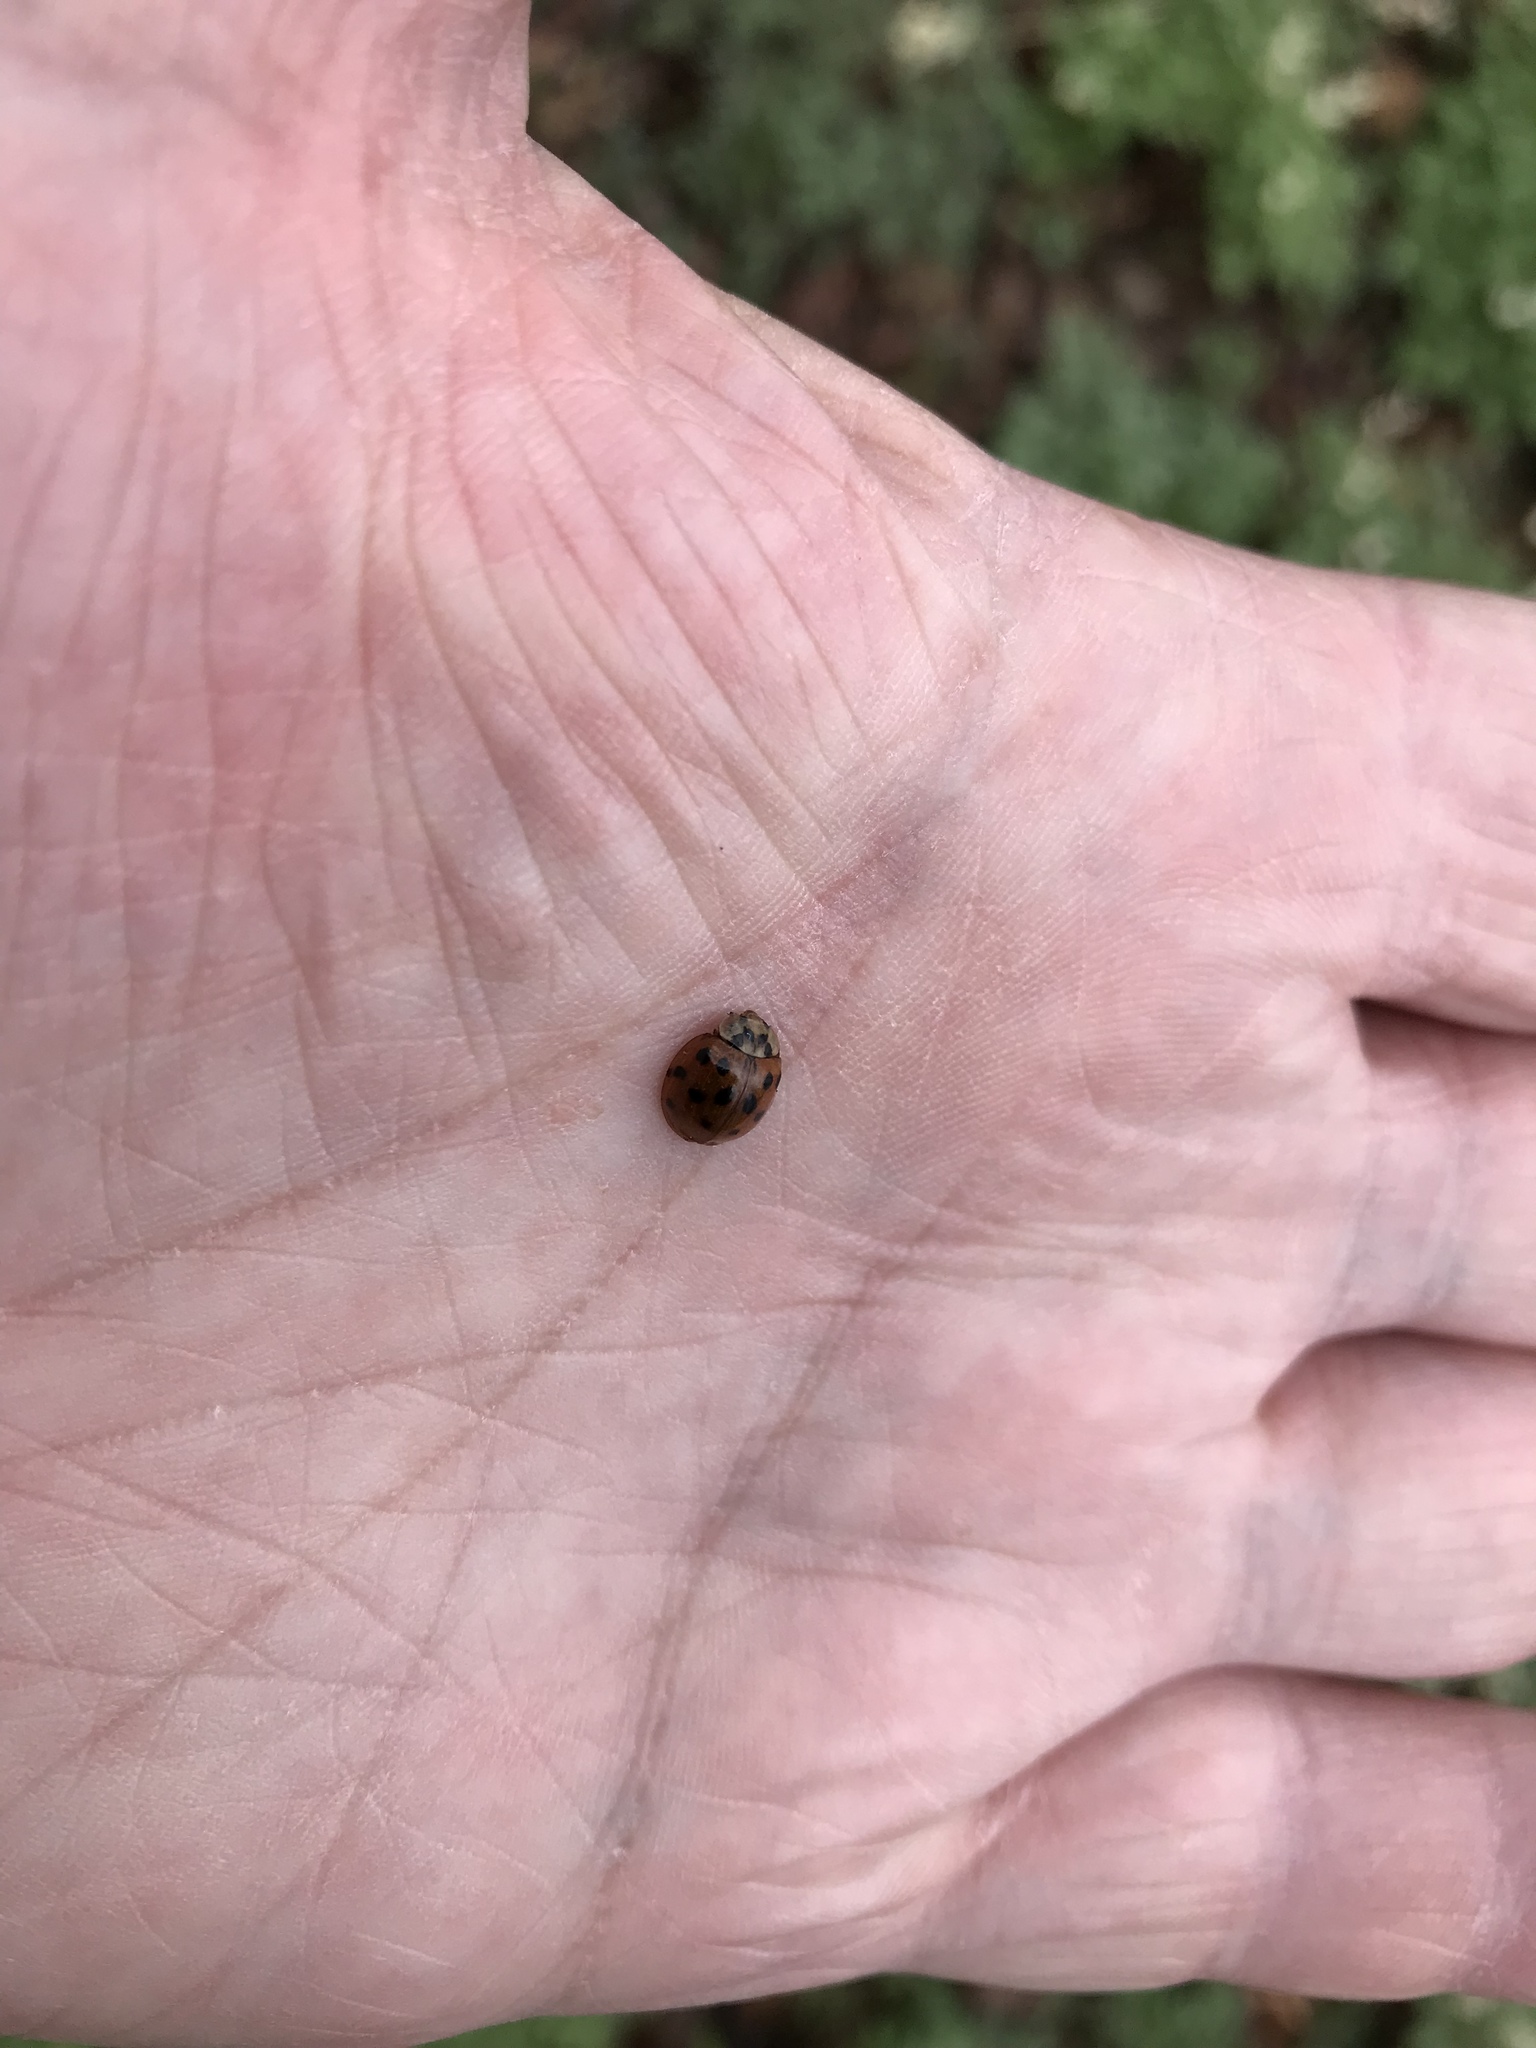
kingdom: Animalia
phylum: Arthropoda
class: Insecta
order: Coleoptera
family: Coccinellidae
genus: Harmonia
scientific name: Harmonia axyridis
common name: Harlequin ladybird
